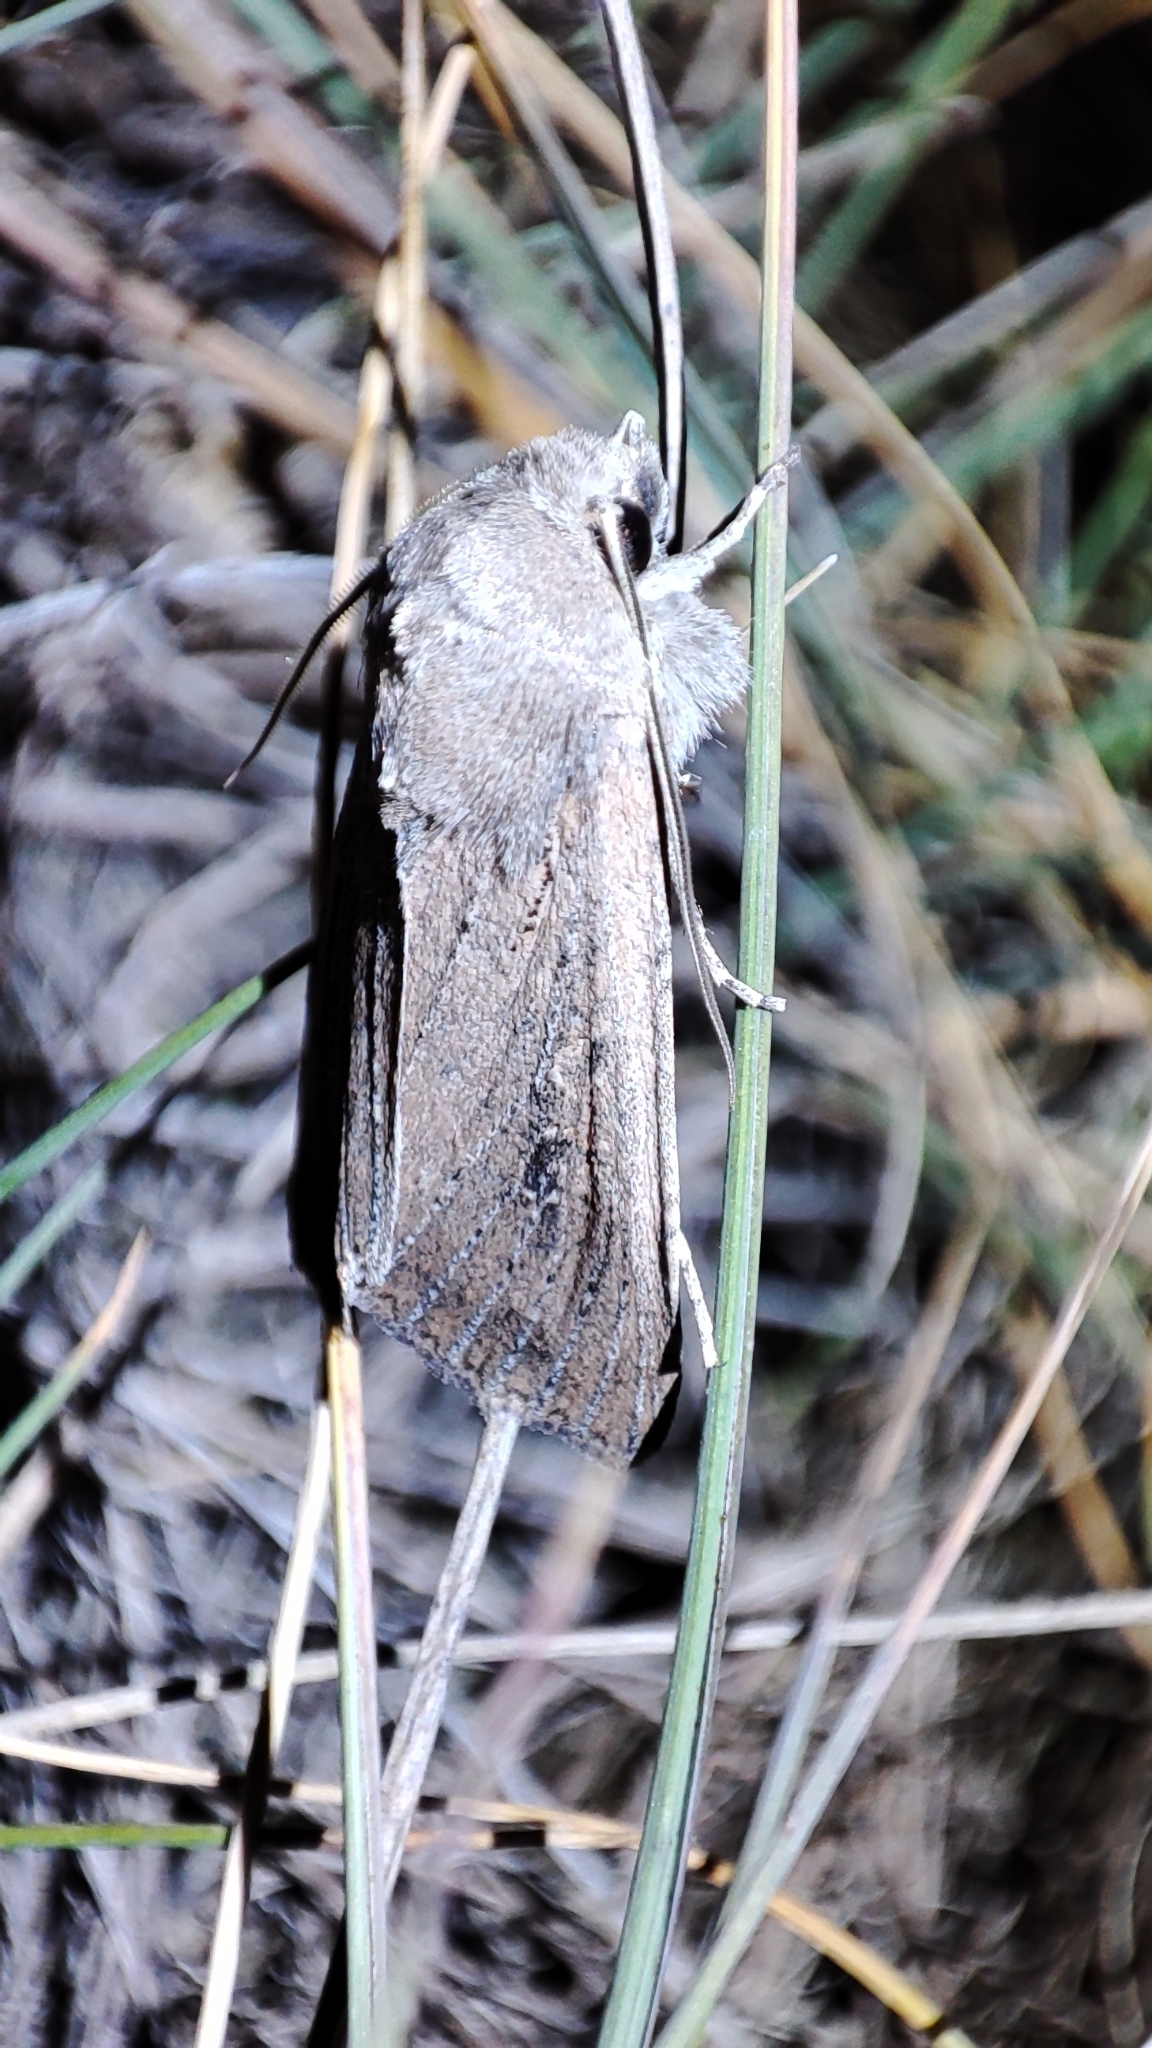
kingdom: Animalia
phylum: Arthropoda
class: Insecta
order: Lepidoptera
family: Noctuidae
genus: Fabula
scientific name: Fabula zollikoferi
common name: Scarce arches
